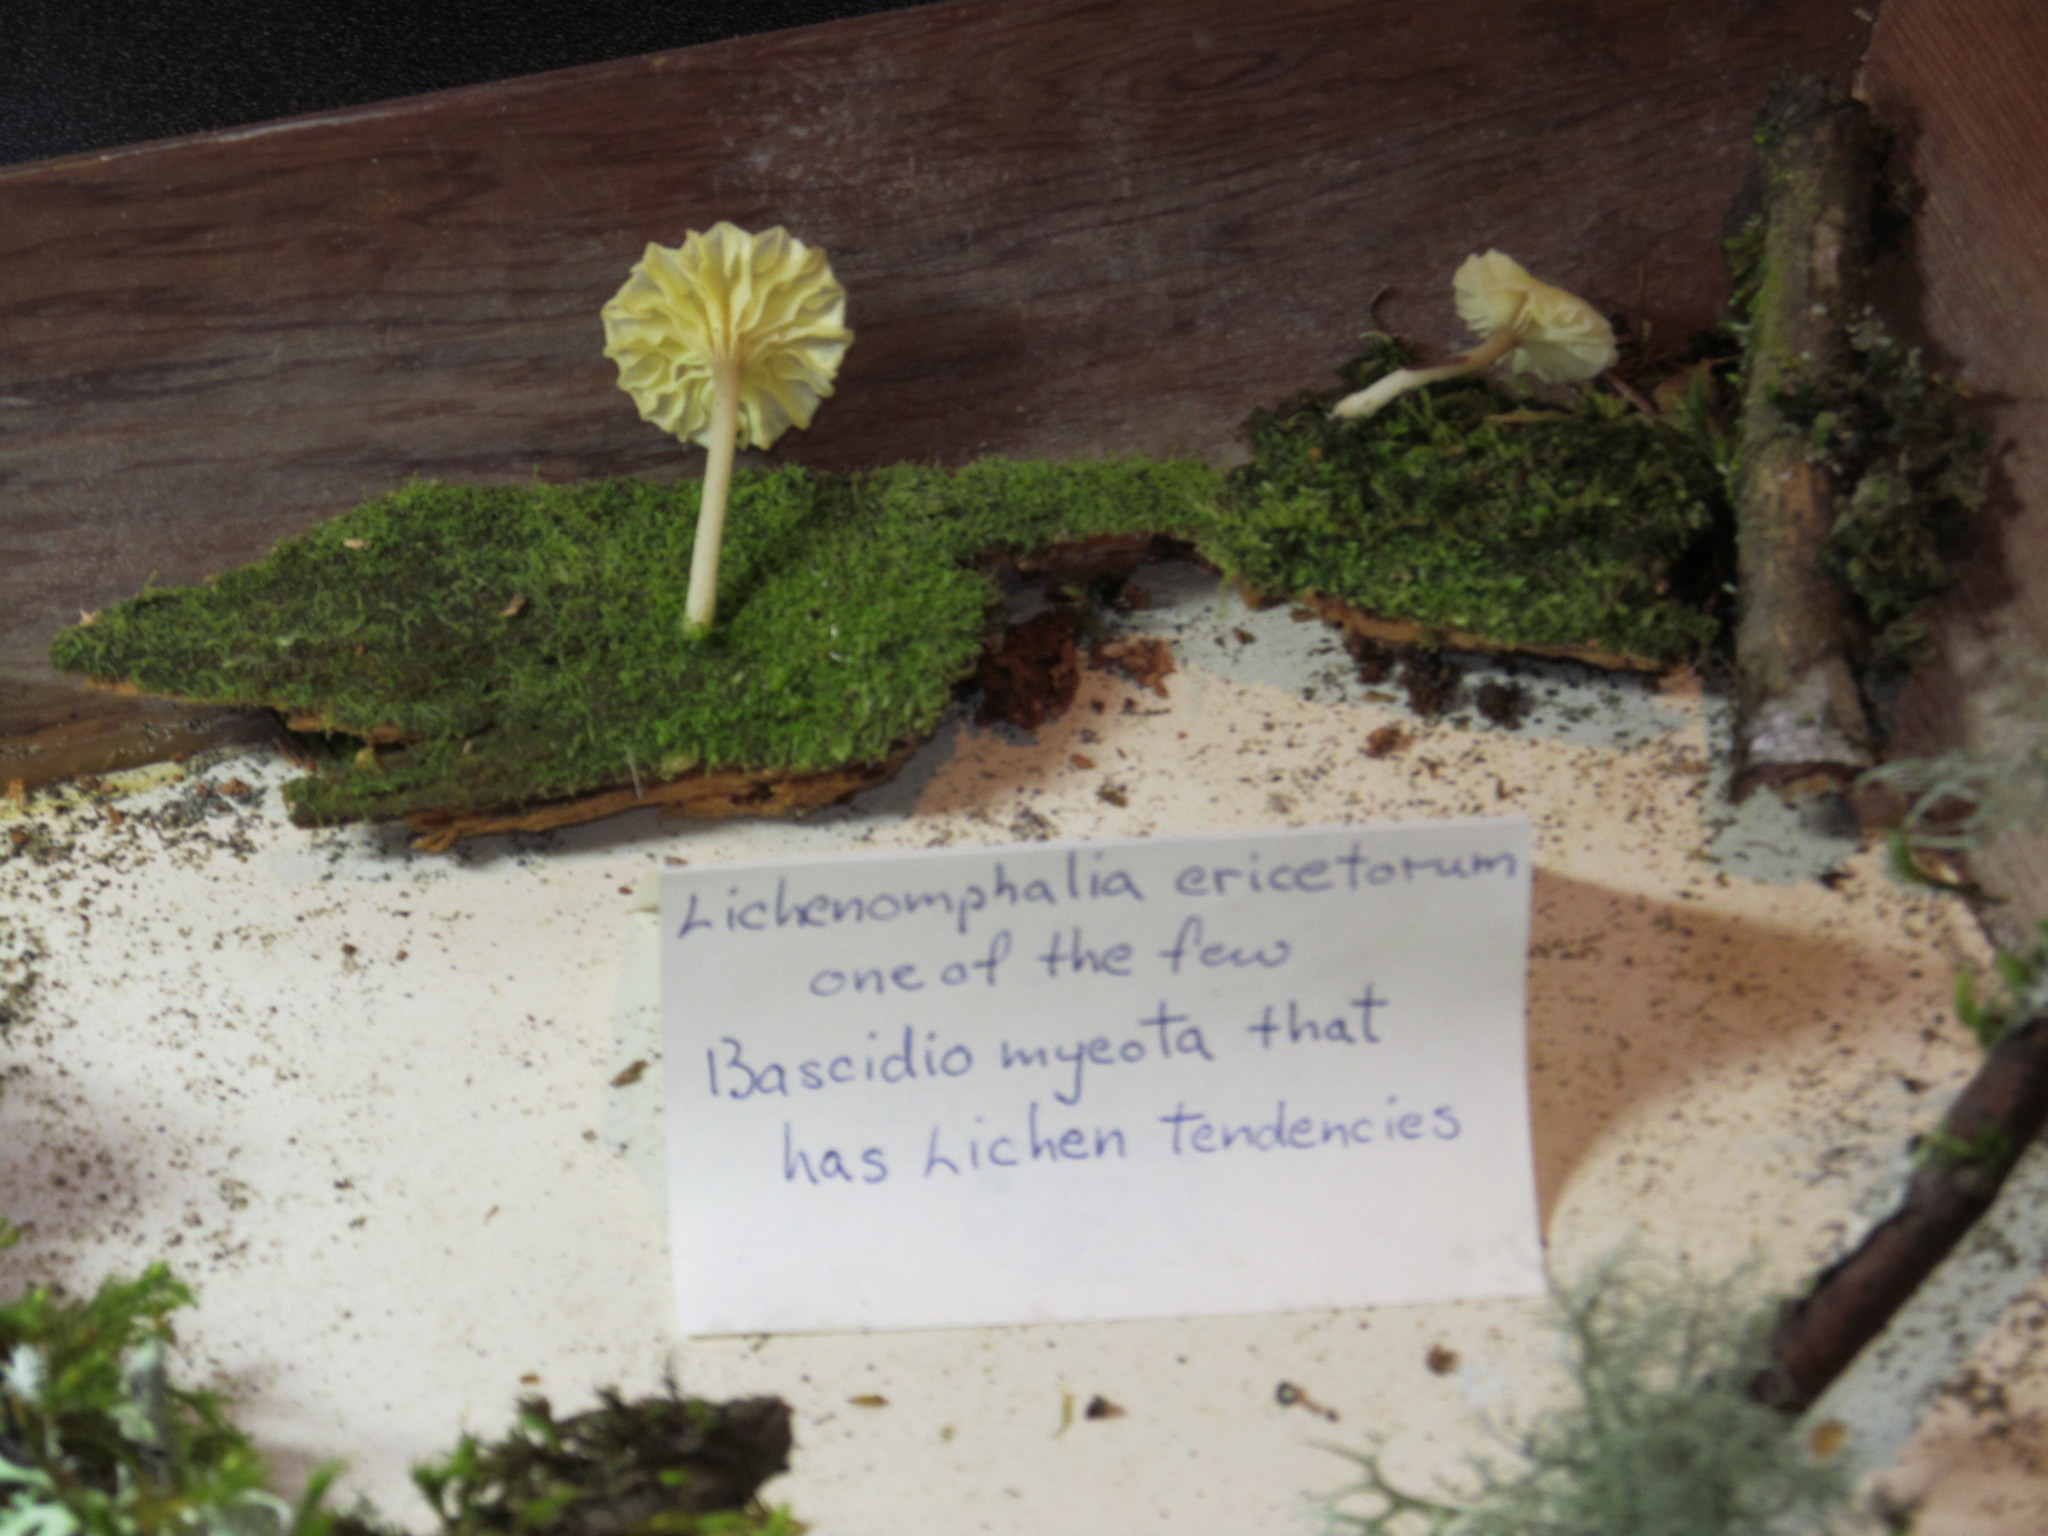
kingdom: Fungi
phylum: Basidiomycota
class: Agaricomycetes
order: Agaricales
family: Hygrophoraceae
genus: Lichenomphalia
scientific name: Lichenomphalia
